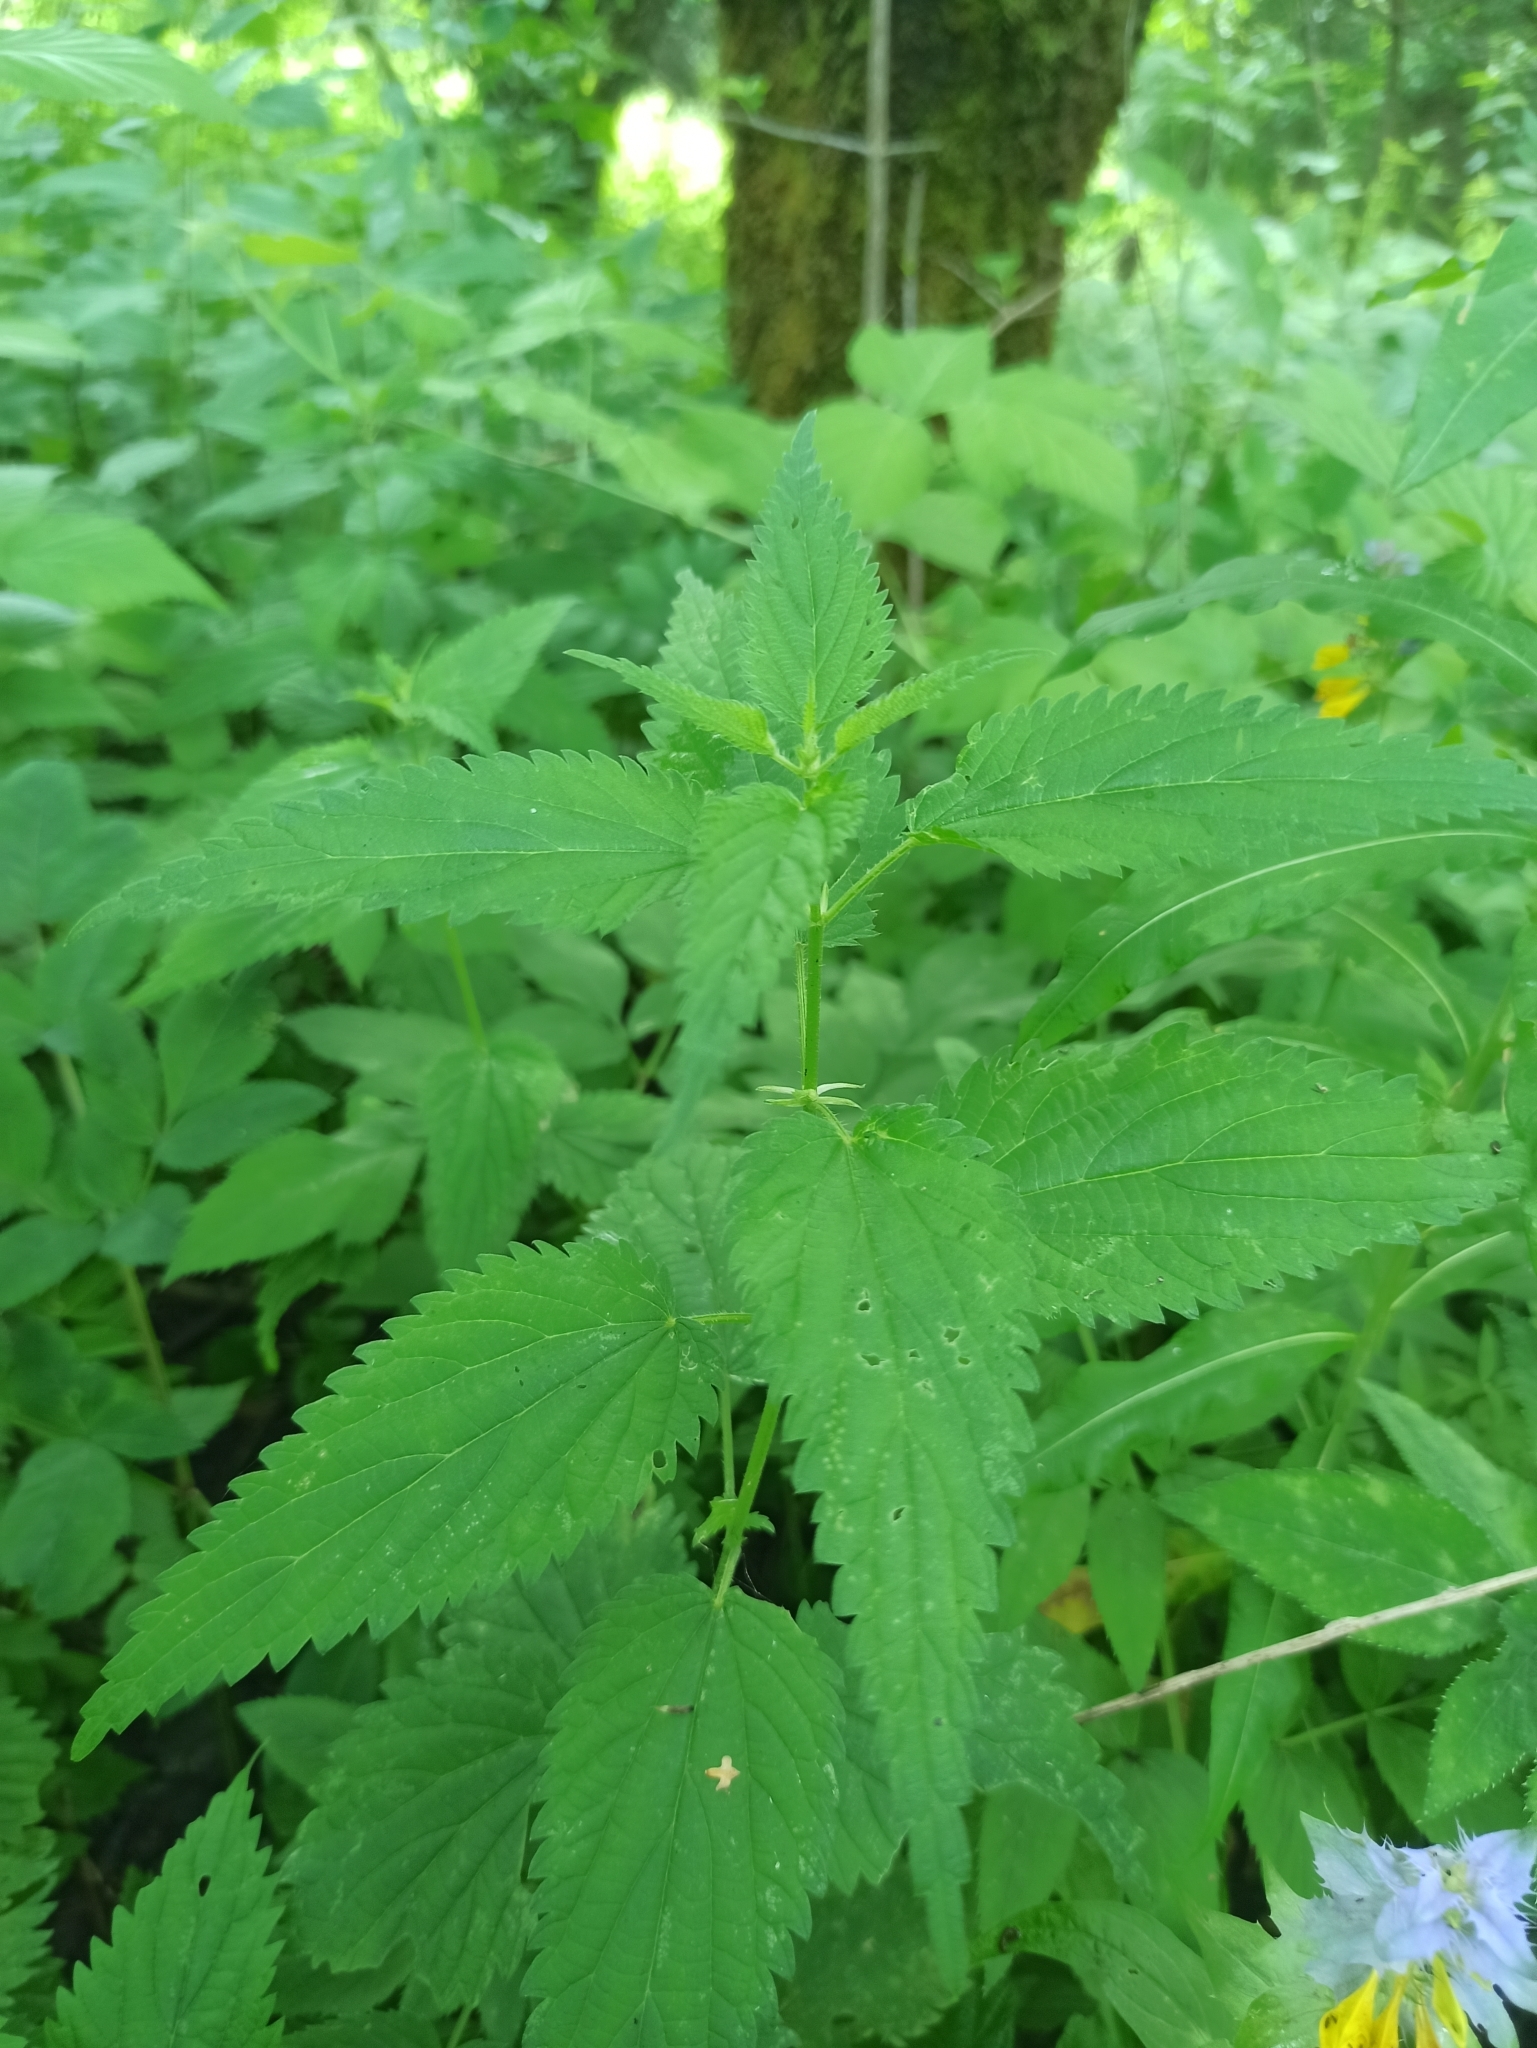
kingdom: Plantae
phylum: Tracheophyta
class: Magnoliopsida
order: Rosales
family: Urticaceae
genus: Urtica
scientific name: Urtica dioica
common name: Common nettle
